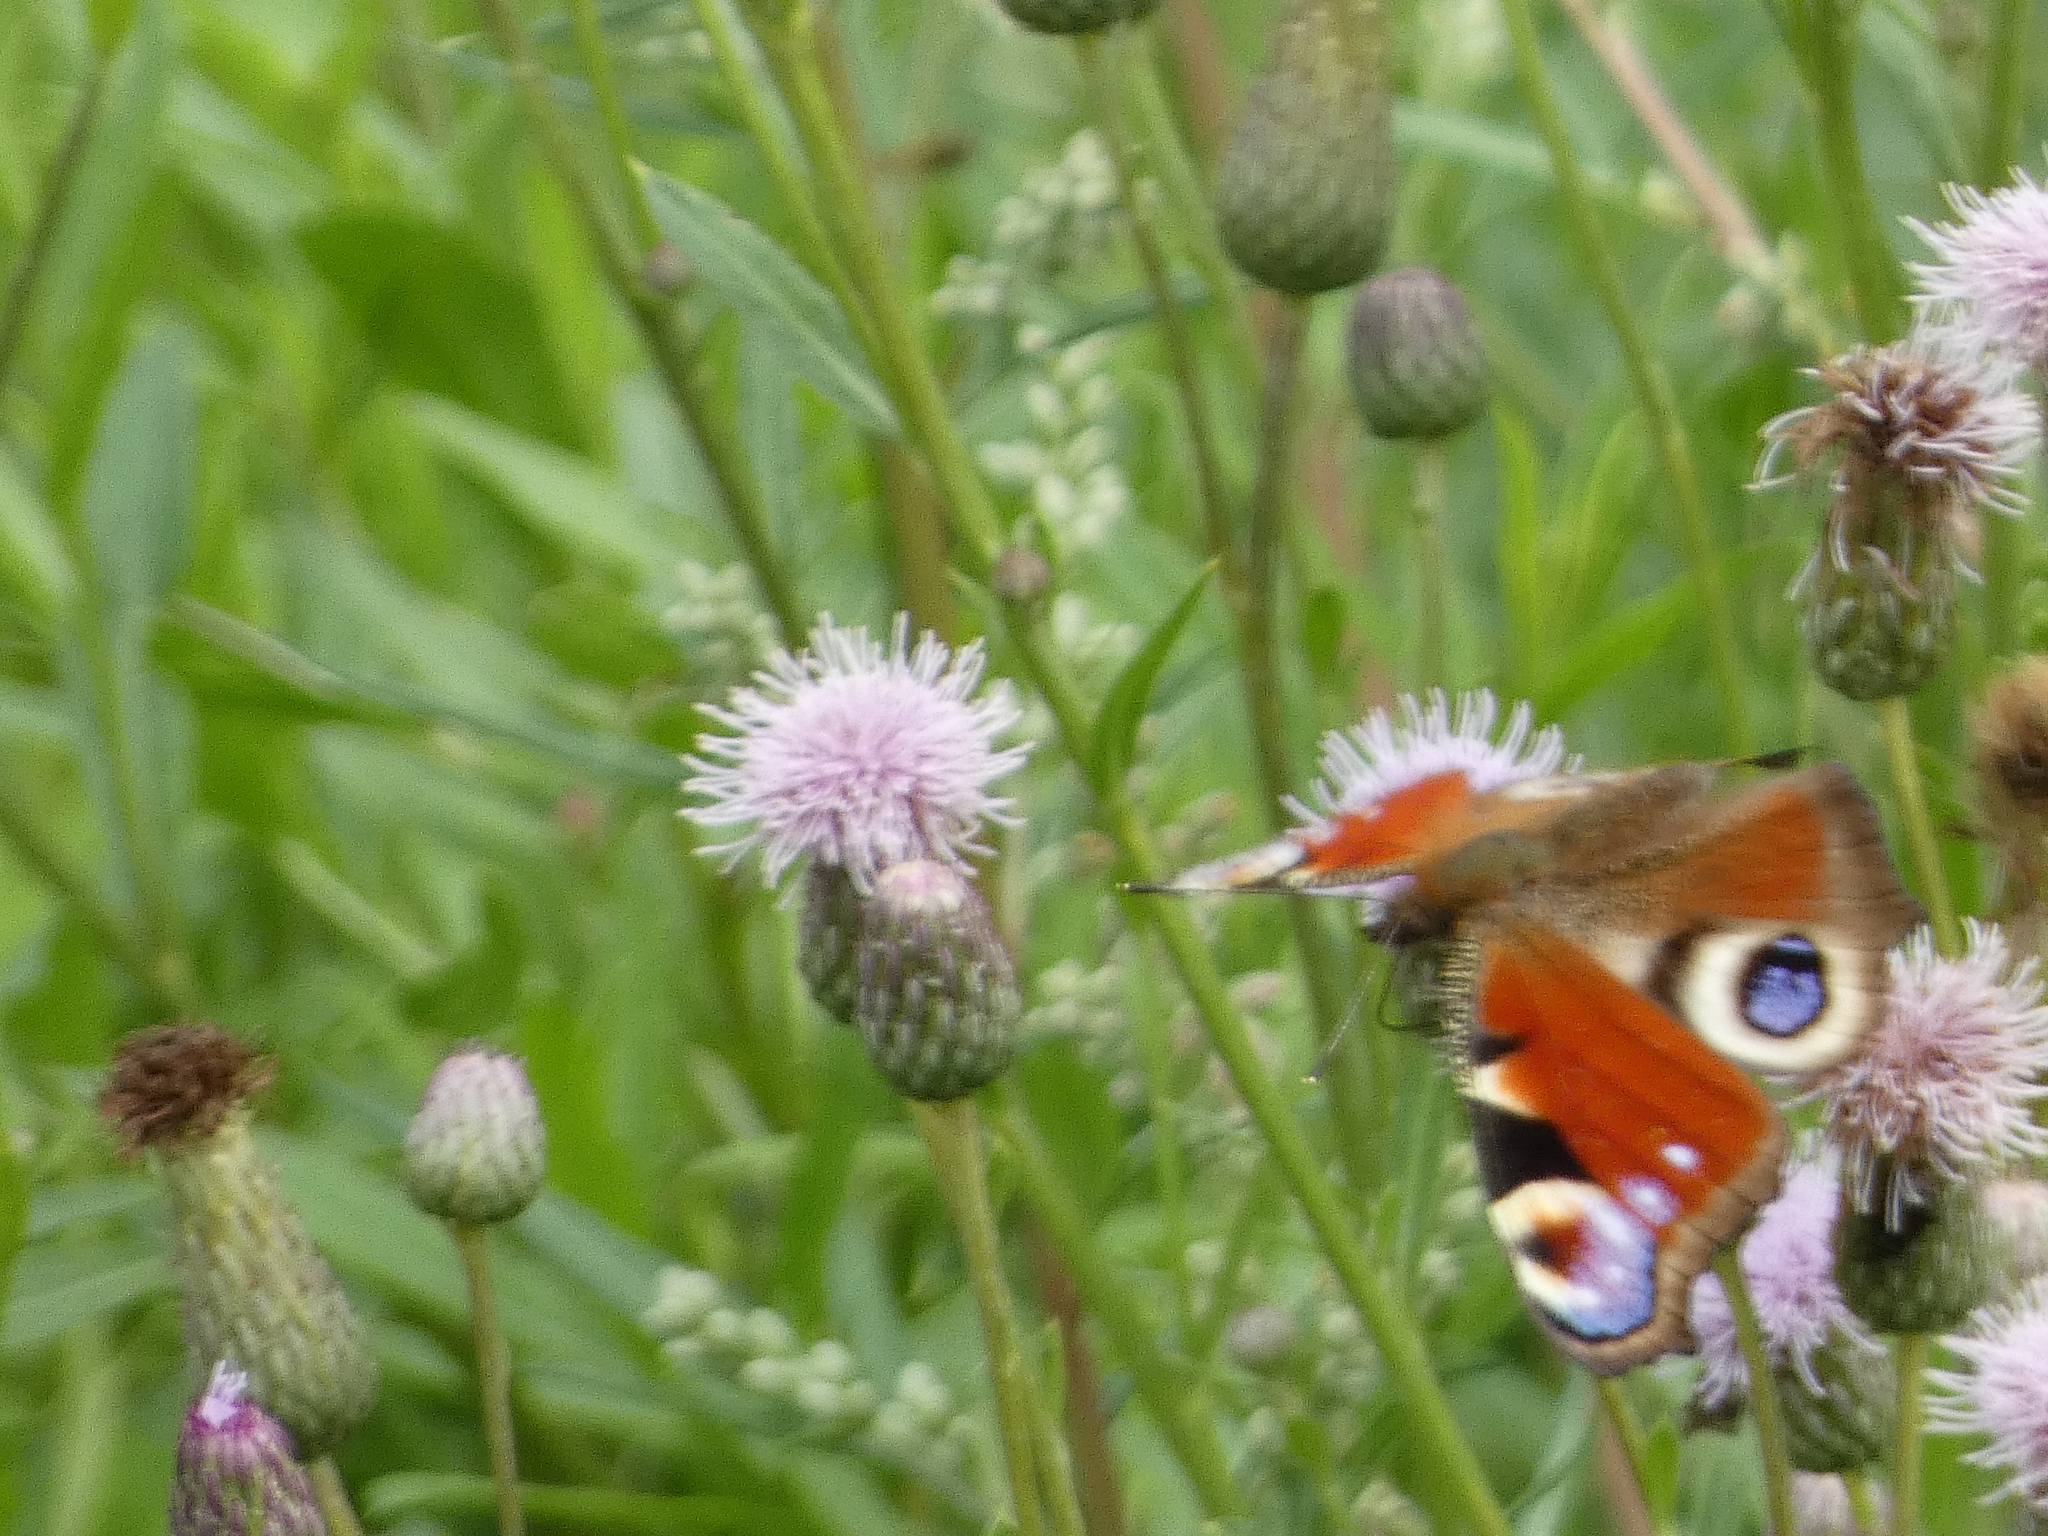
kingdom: Animalia
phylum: Arthropoda
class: Insecta
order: Lepidoptera
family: Nymphalidae
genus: Aglais
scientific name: Aglais io
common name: Peacock
